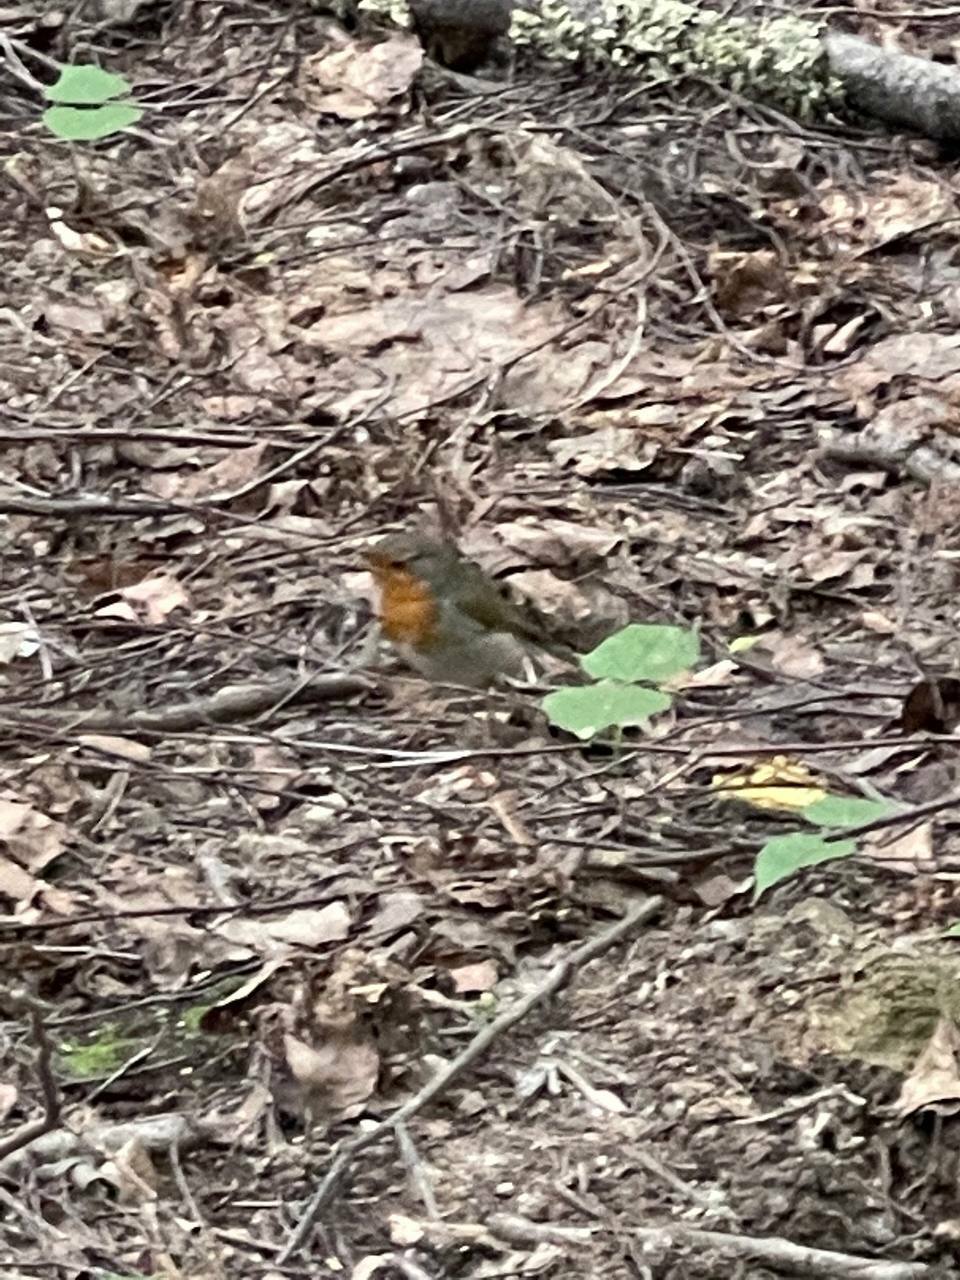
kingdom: Animalia
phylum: Chordata
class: Aves
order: Passeriformes
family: Muscicapidae
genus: Erithacus
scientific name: Erithacus rubecula
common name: European robin
